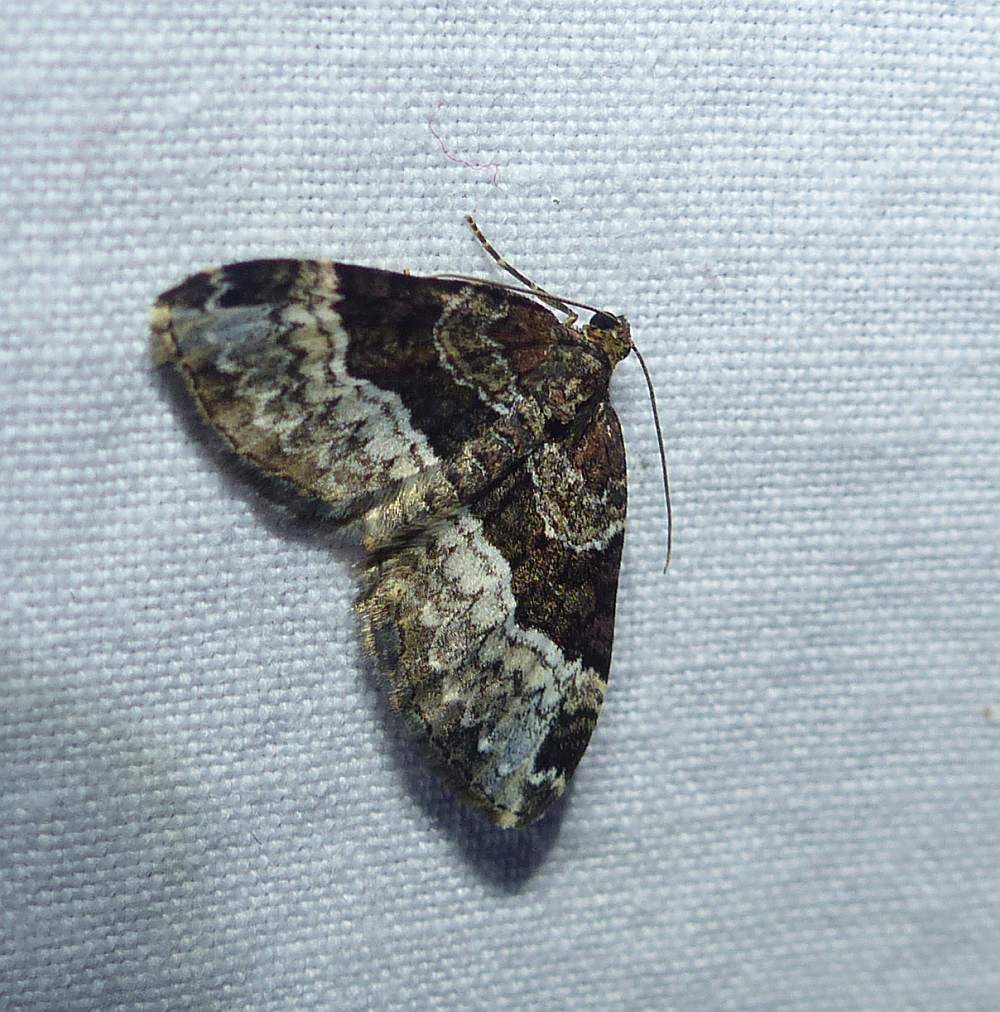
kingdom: Animalia
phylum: Arthropoda
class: Insecta
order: Lepidoptera
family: Geometridae
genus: Euphyia
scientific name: Euphyia intermediata
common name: Sharp-angled carpet
